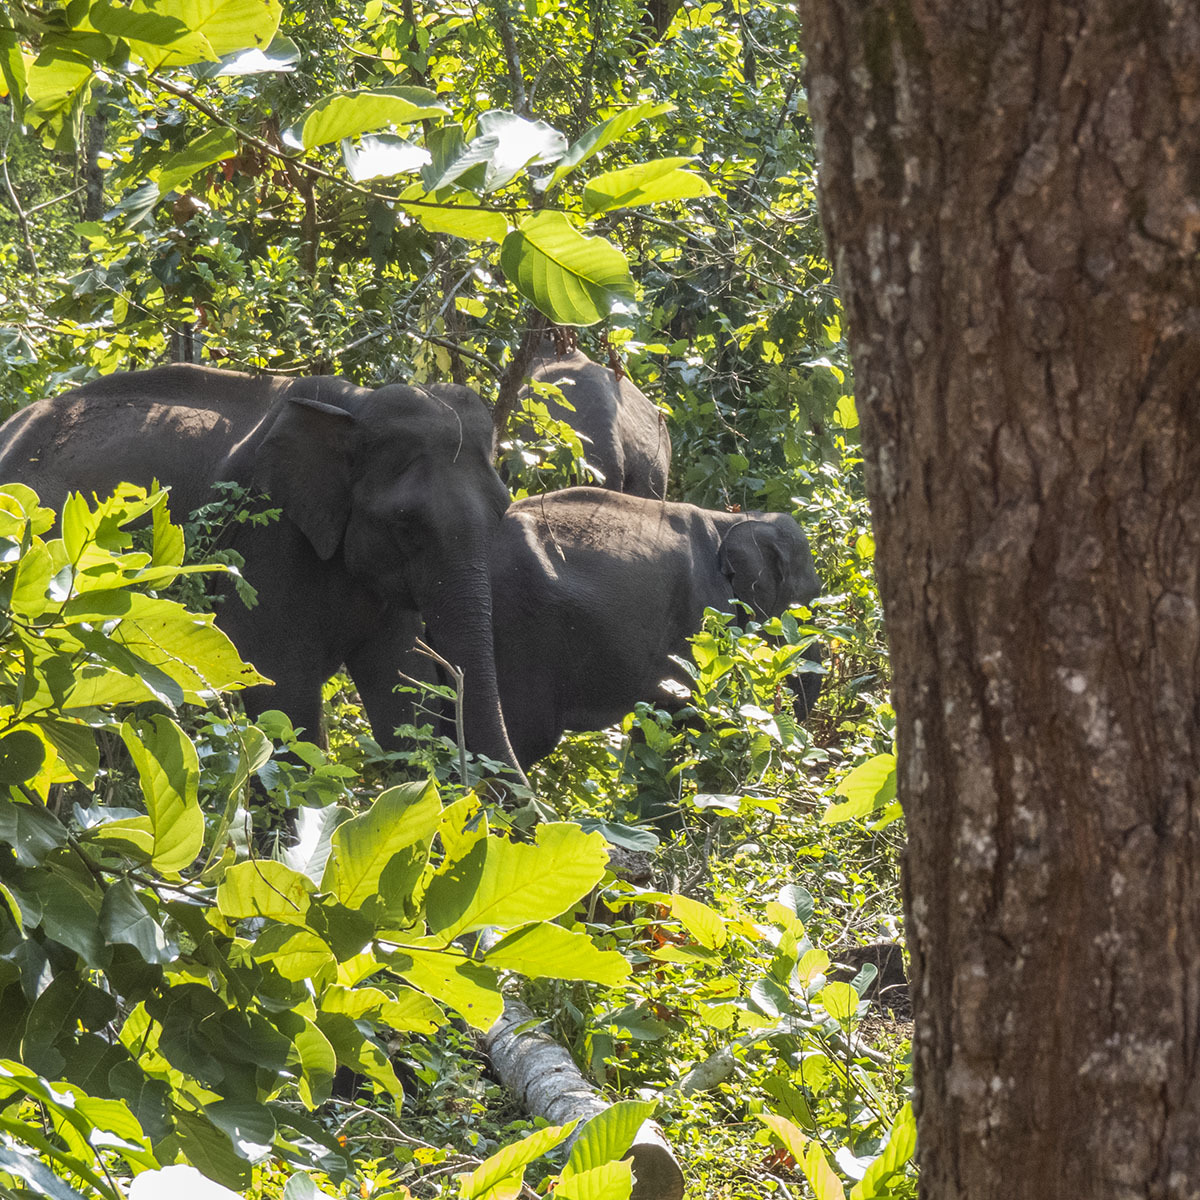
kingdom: Animalia
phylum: Chordata
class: Mammalia
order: Proboscidea
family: Elephantidae
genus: Elephas
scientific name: Elephas maximus
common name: Asian elephant
